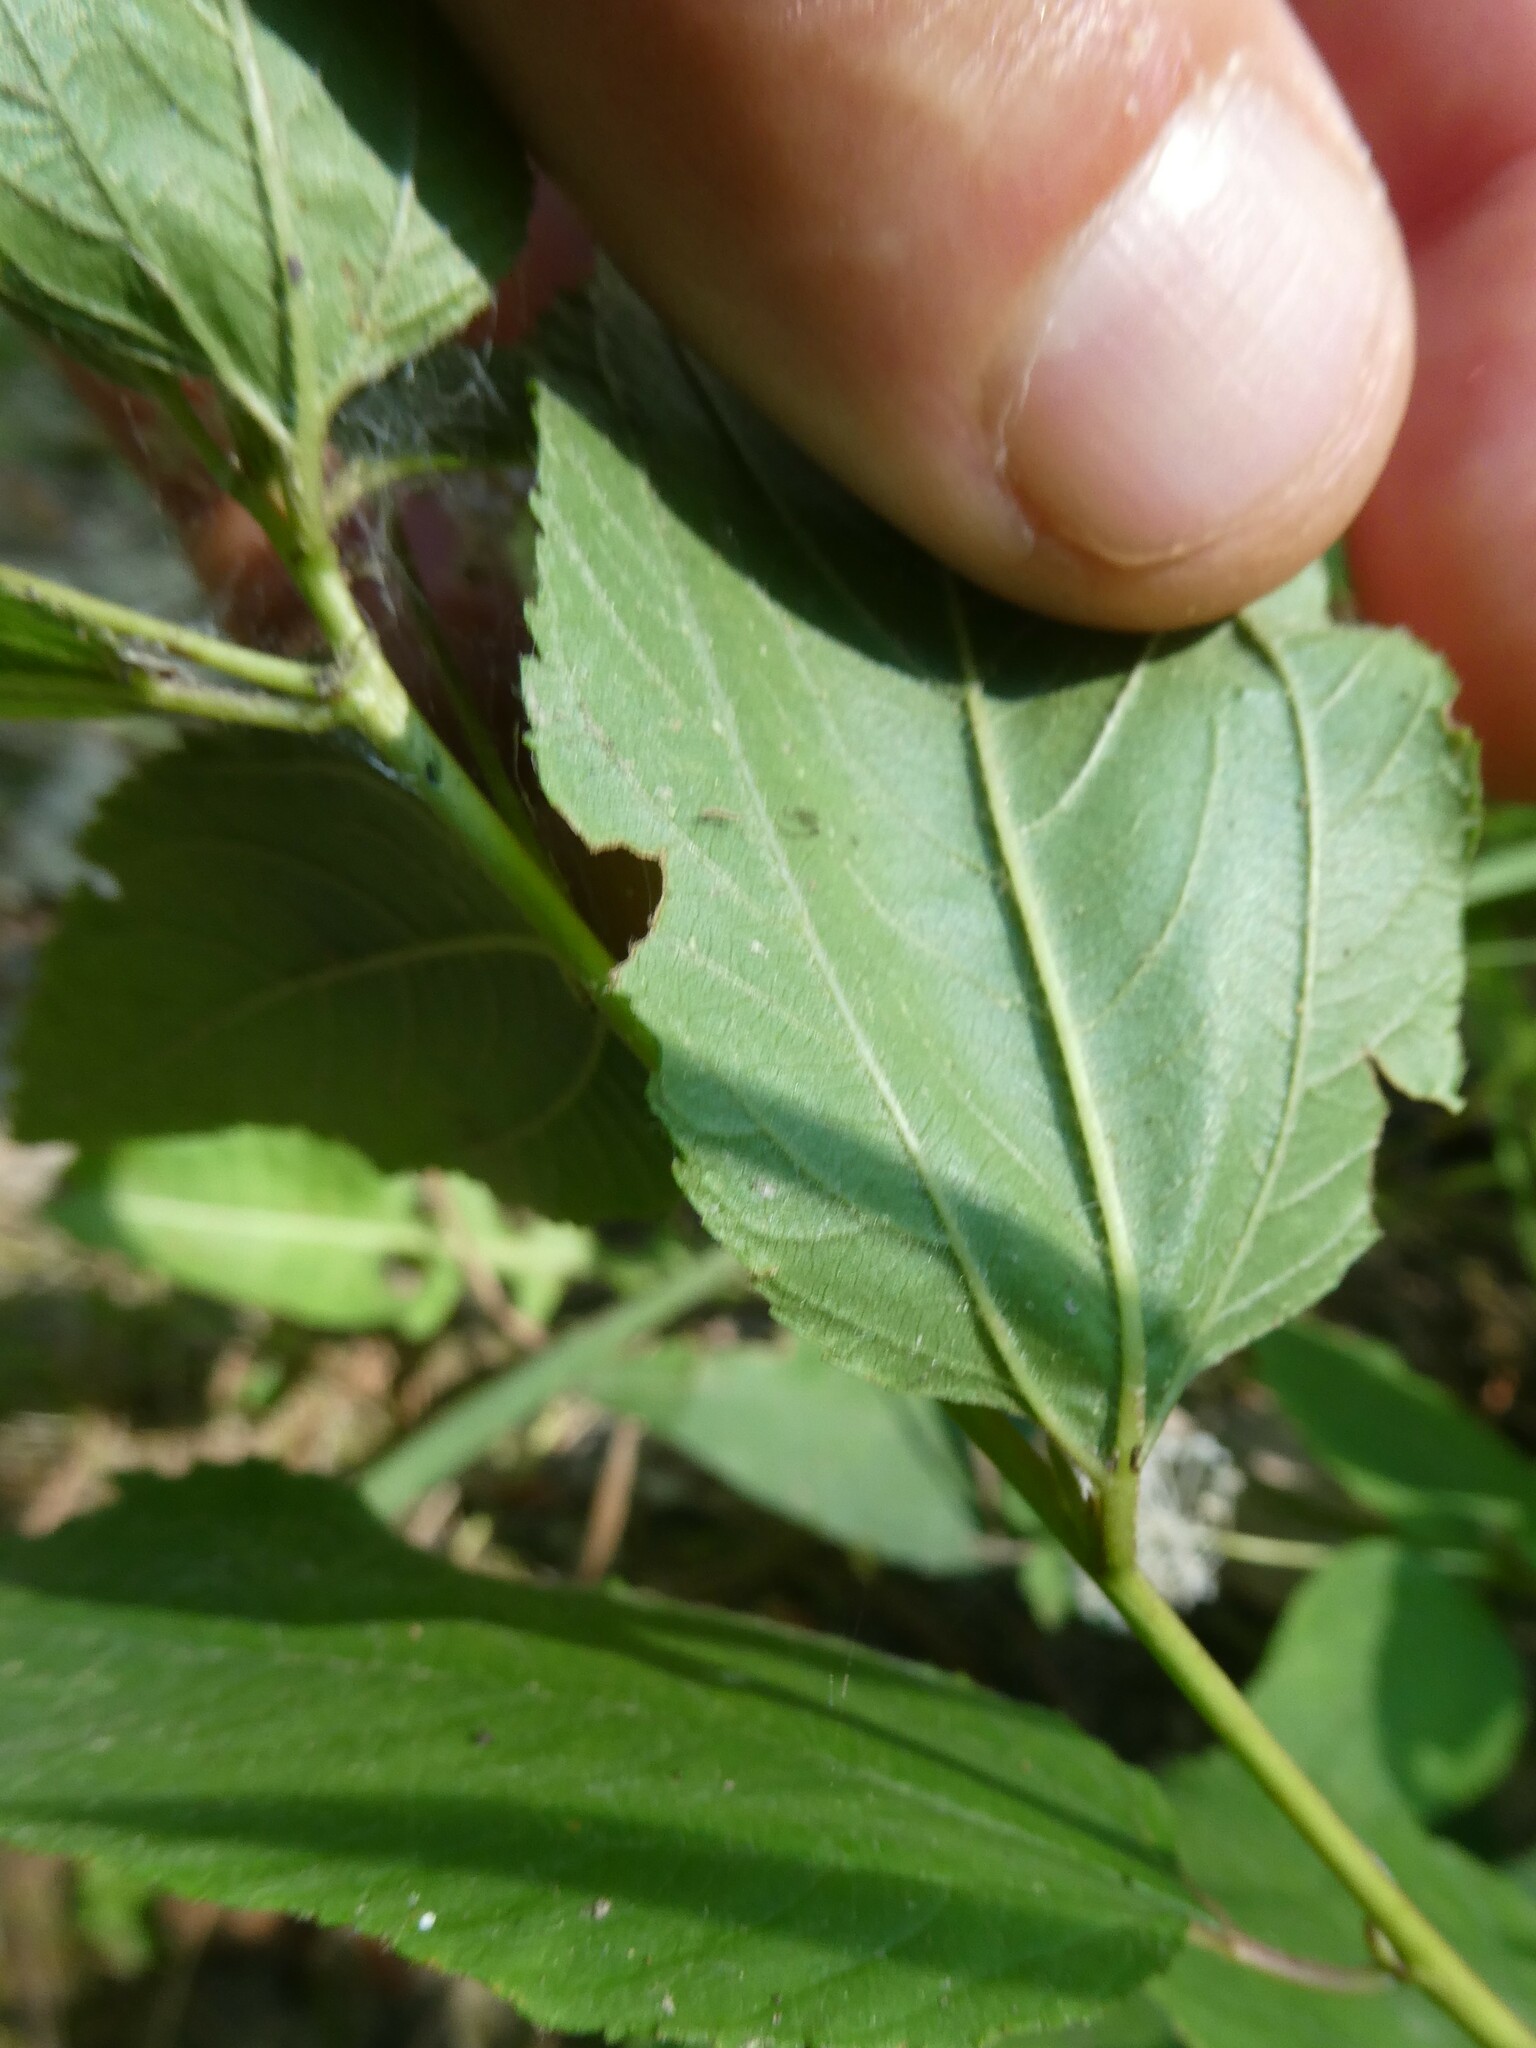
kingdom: Plantae
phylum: Tracheophyta
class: Magnoliopsida
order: Rosales
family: Rhamnaceae
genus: Ceanothus
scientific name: Ceanothus americanus
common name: Redroot
